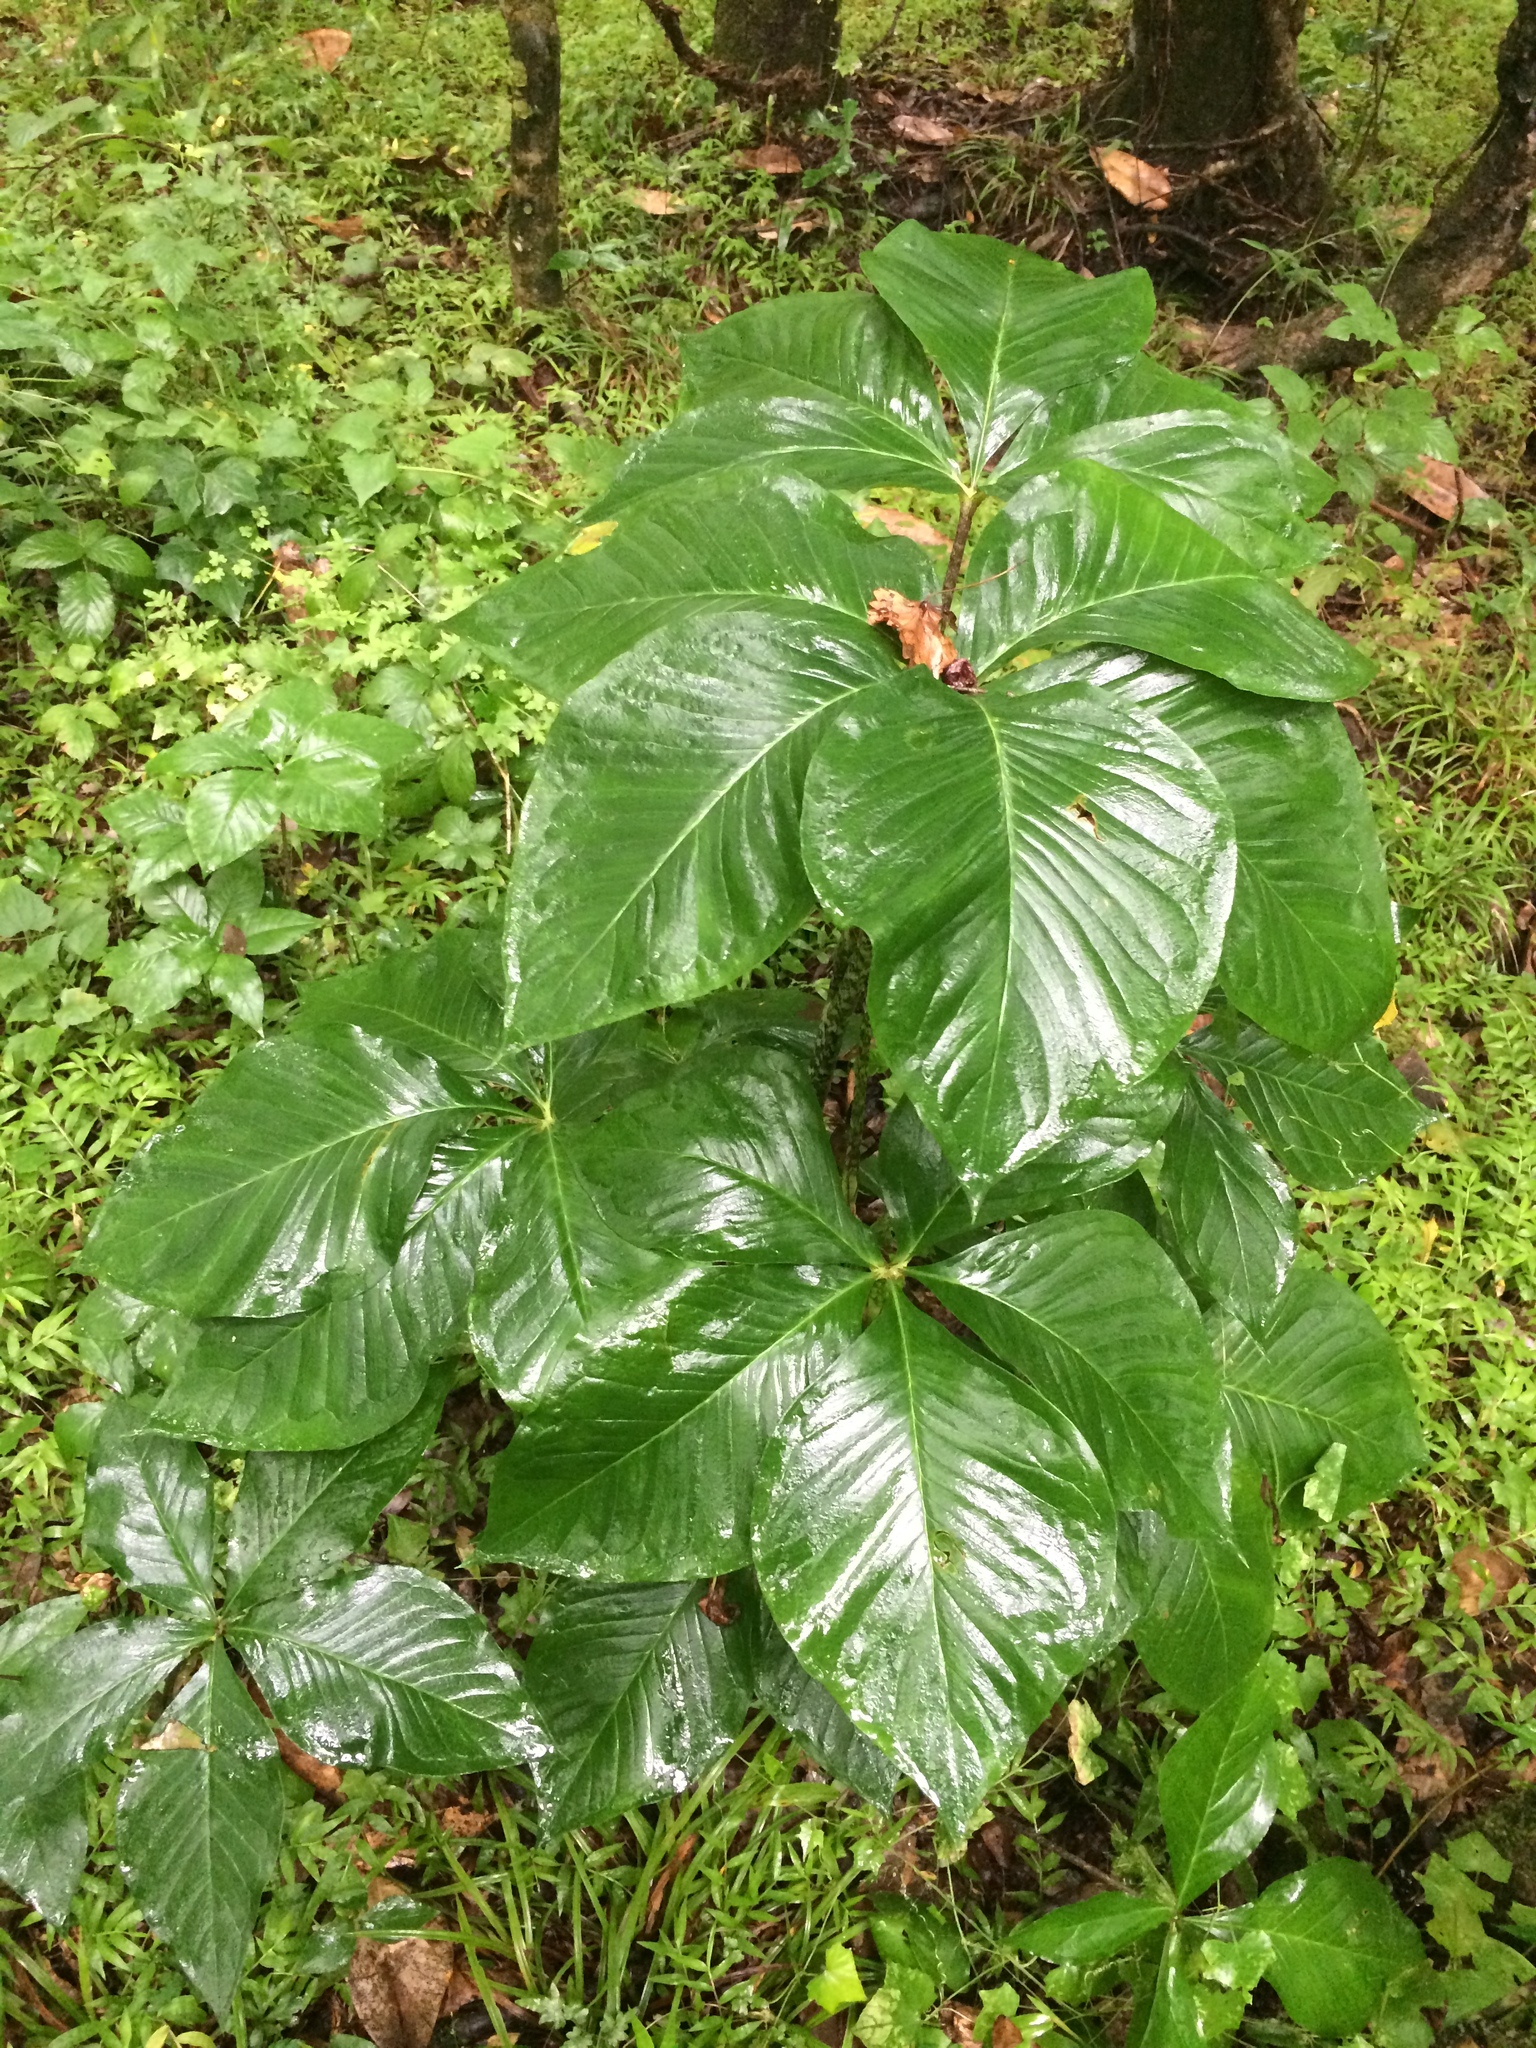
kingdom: Plantae
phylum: Tracheophyta
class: Liliopsida
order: Alismatales
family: Araceae
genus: Arisaema
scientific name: Arisaema quinatum
